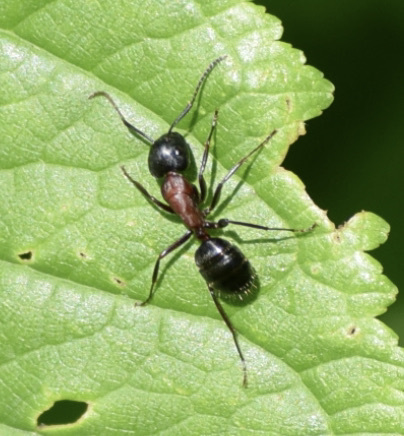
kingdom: Animalia
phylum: Arthropoda
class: Insecta
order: Hymenoptera
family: Formicidae
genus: Camponotus
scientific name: Camponotus novaeboracensis
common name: New york carpenter ant
